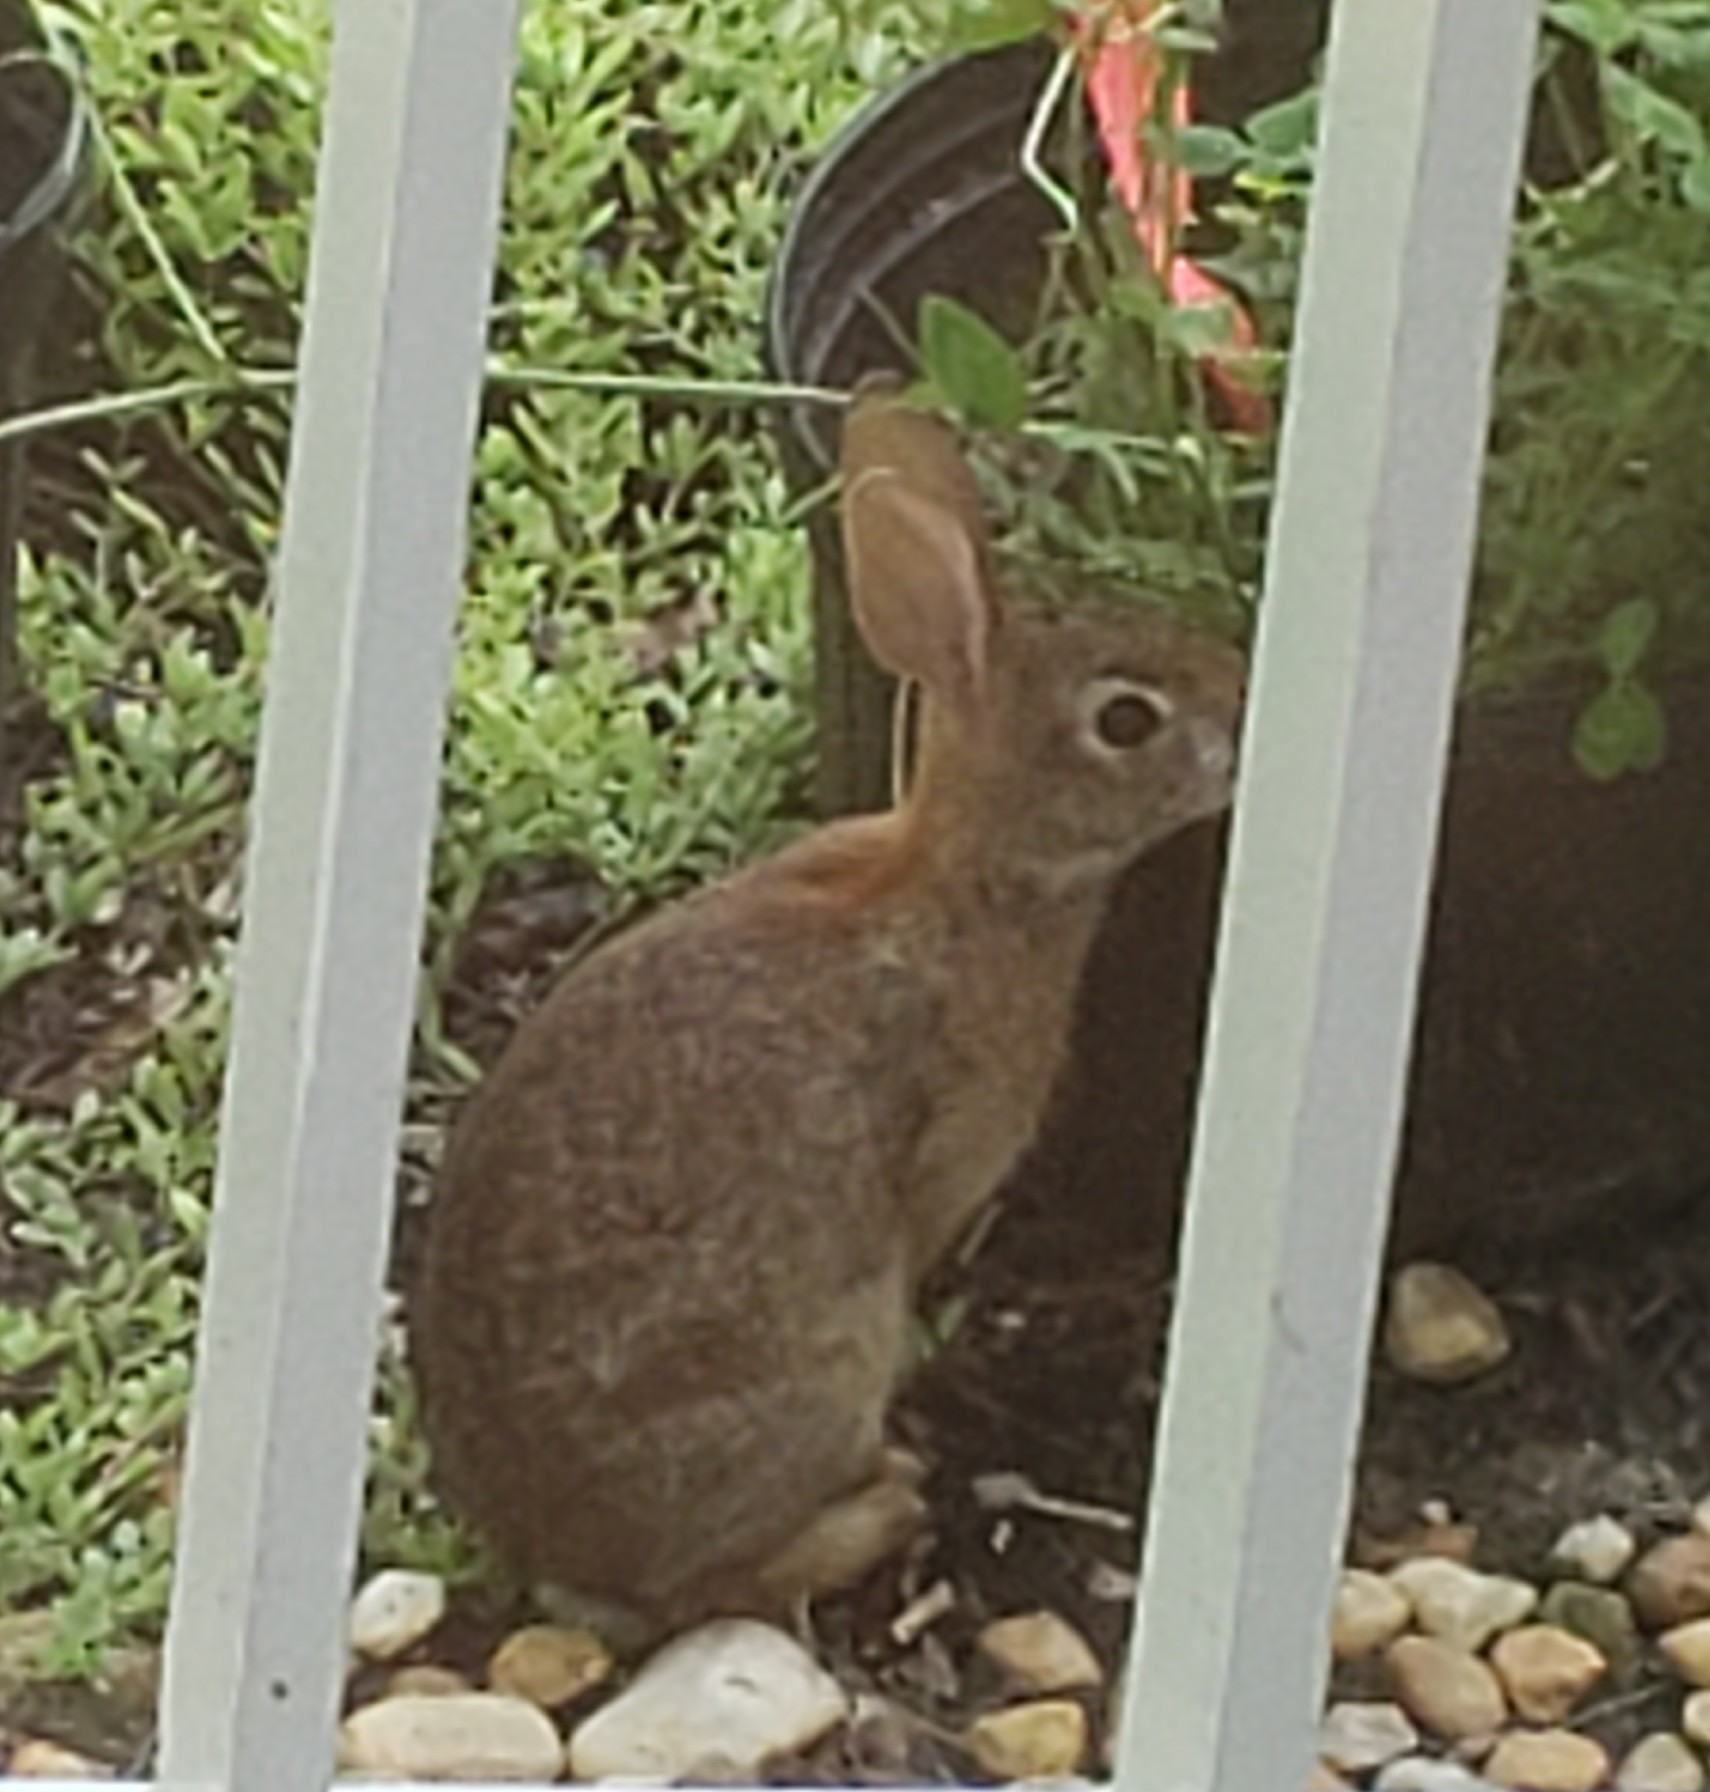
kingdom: Animalia
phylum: Chordata
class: Mammalia
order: Lagomorpha
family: Leporidae
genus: Sylvilagus
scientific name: Sylvilagus floridanus
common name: Eastern cottontail
